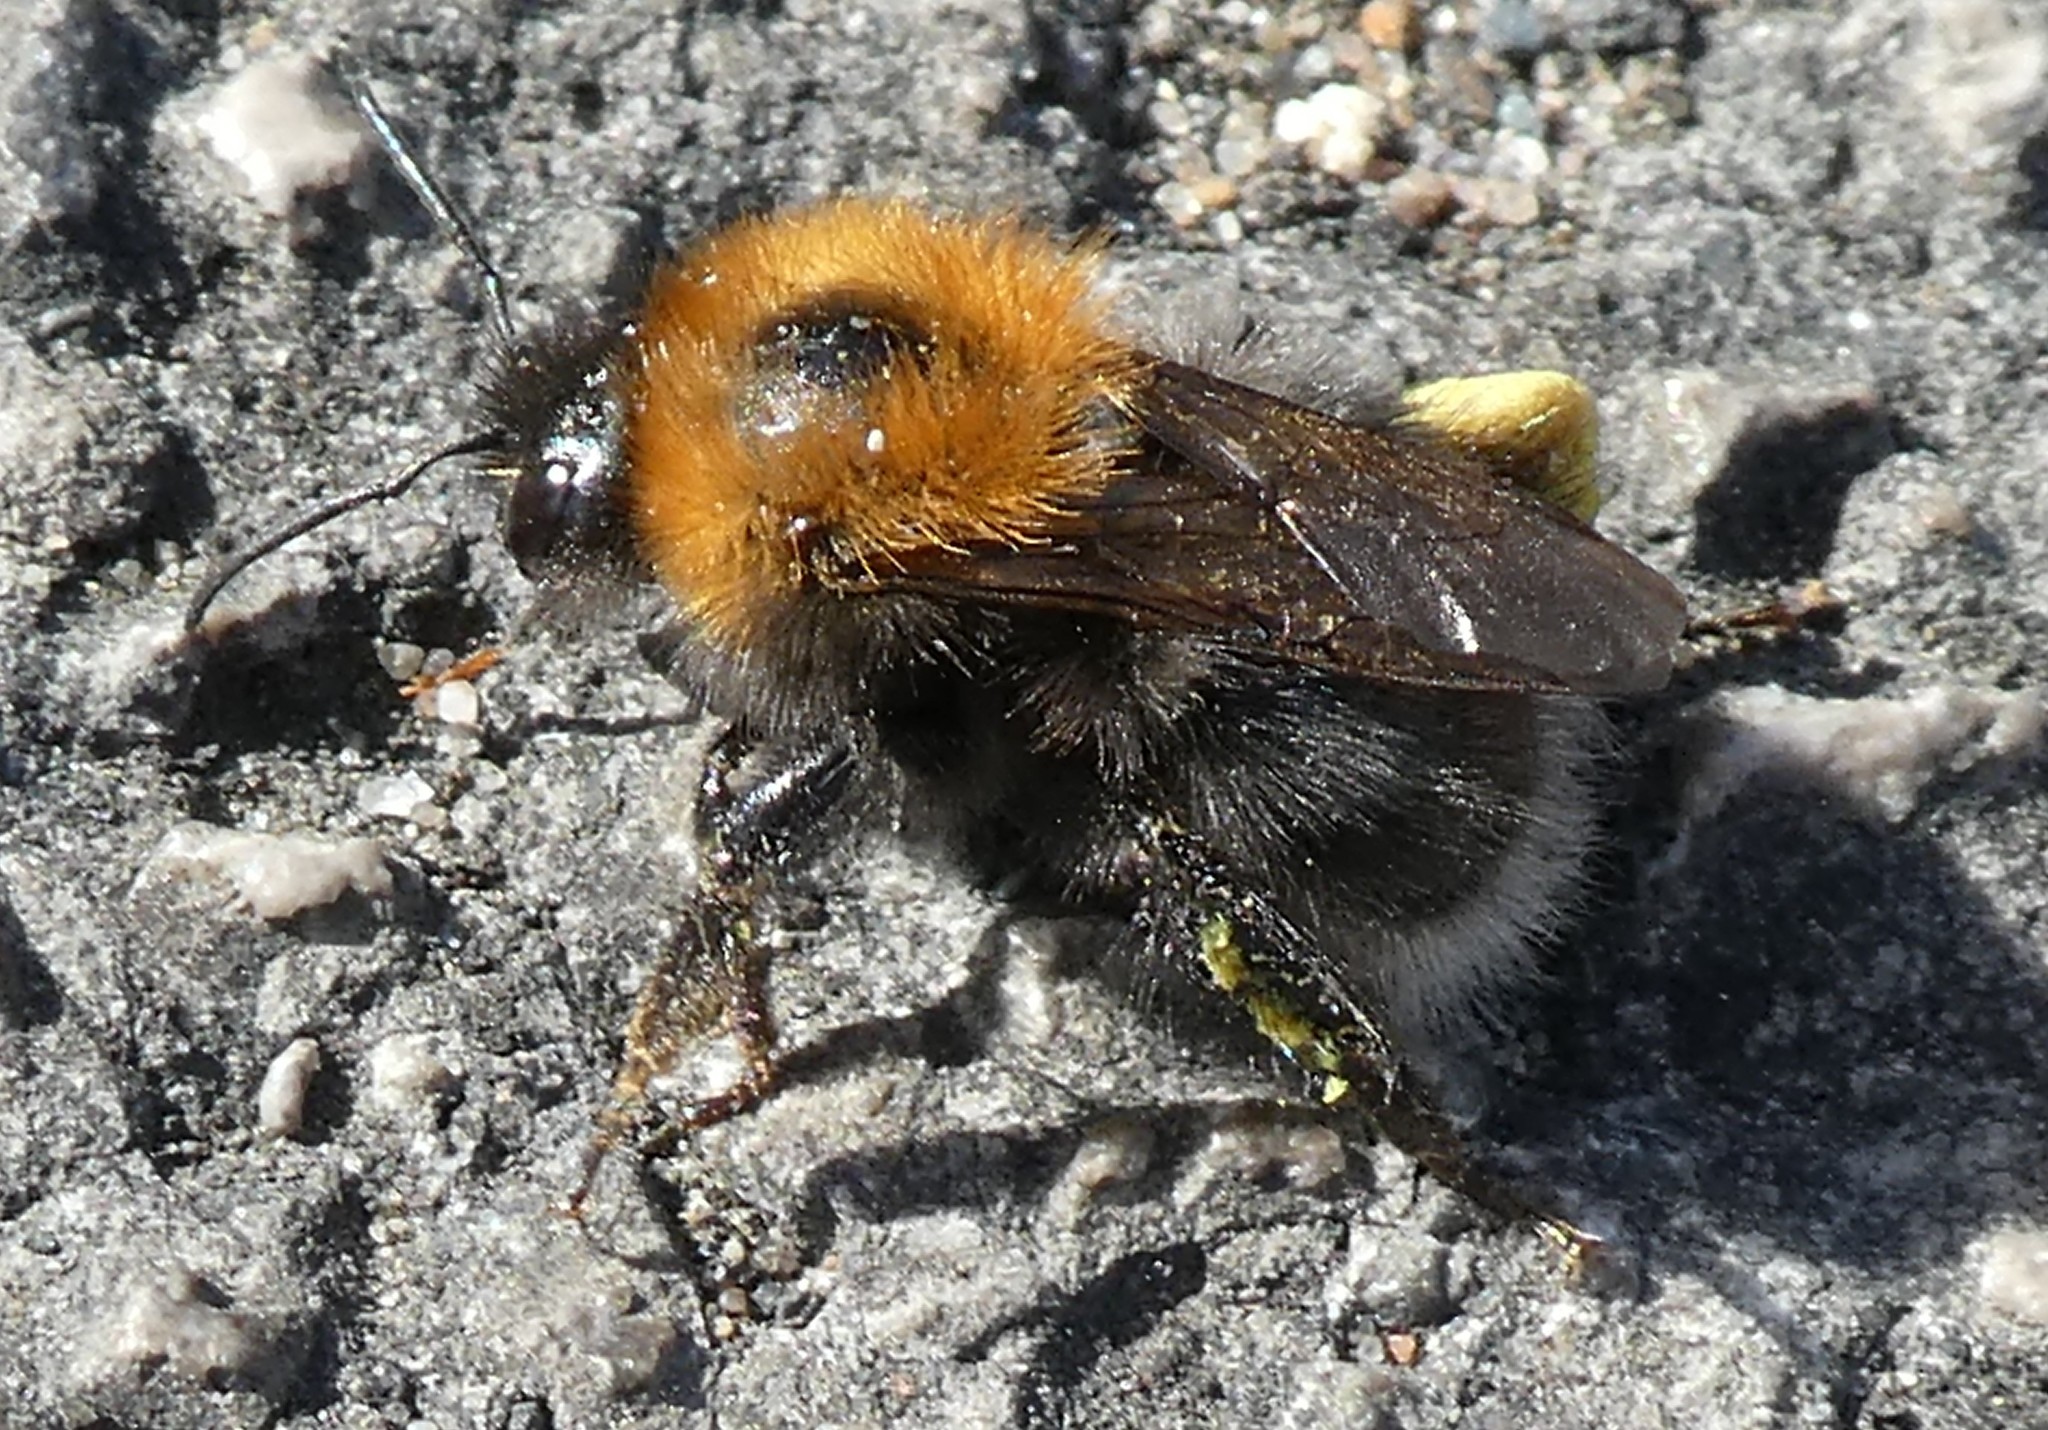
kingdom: Animalia
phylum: Arthropoda
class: Insecta
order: Hymenoptera
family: Apidae
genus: Bombus
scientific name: Bombus hypnorum
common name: New garden bumblebee
